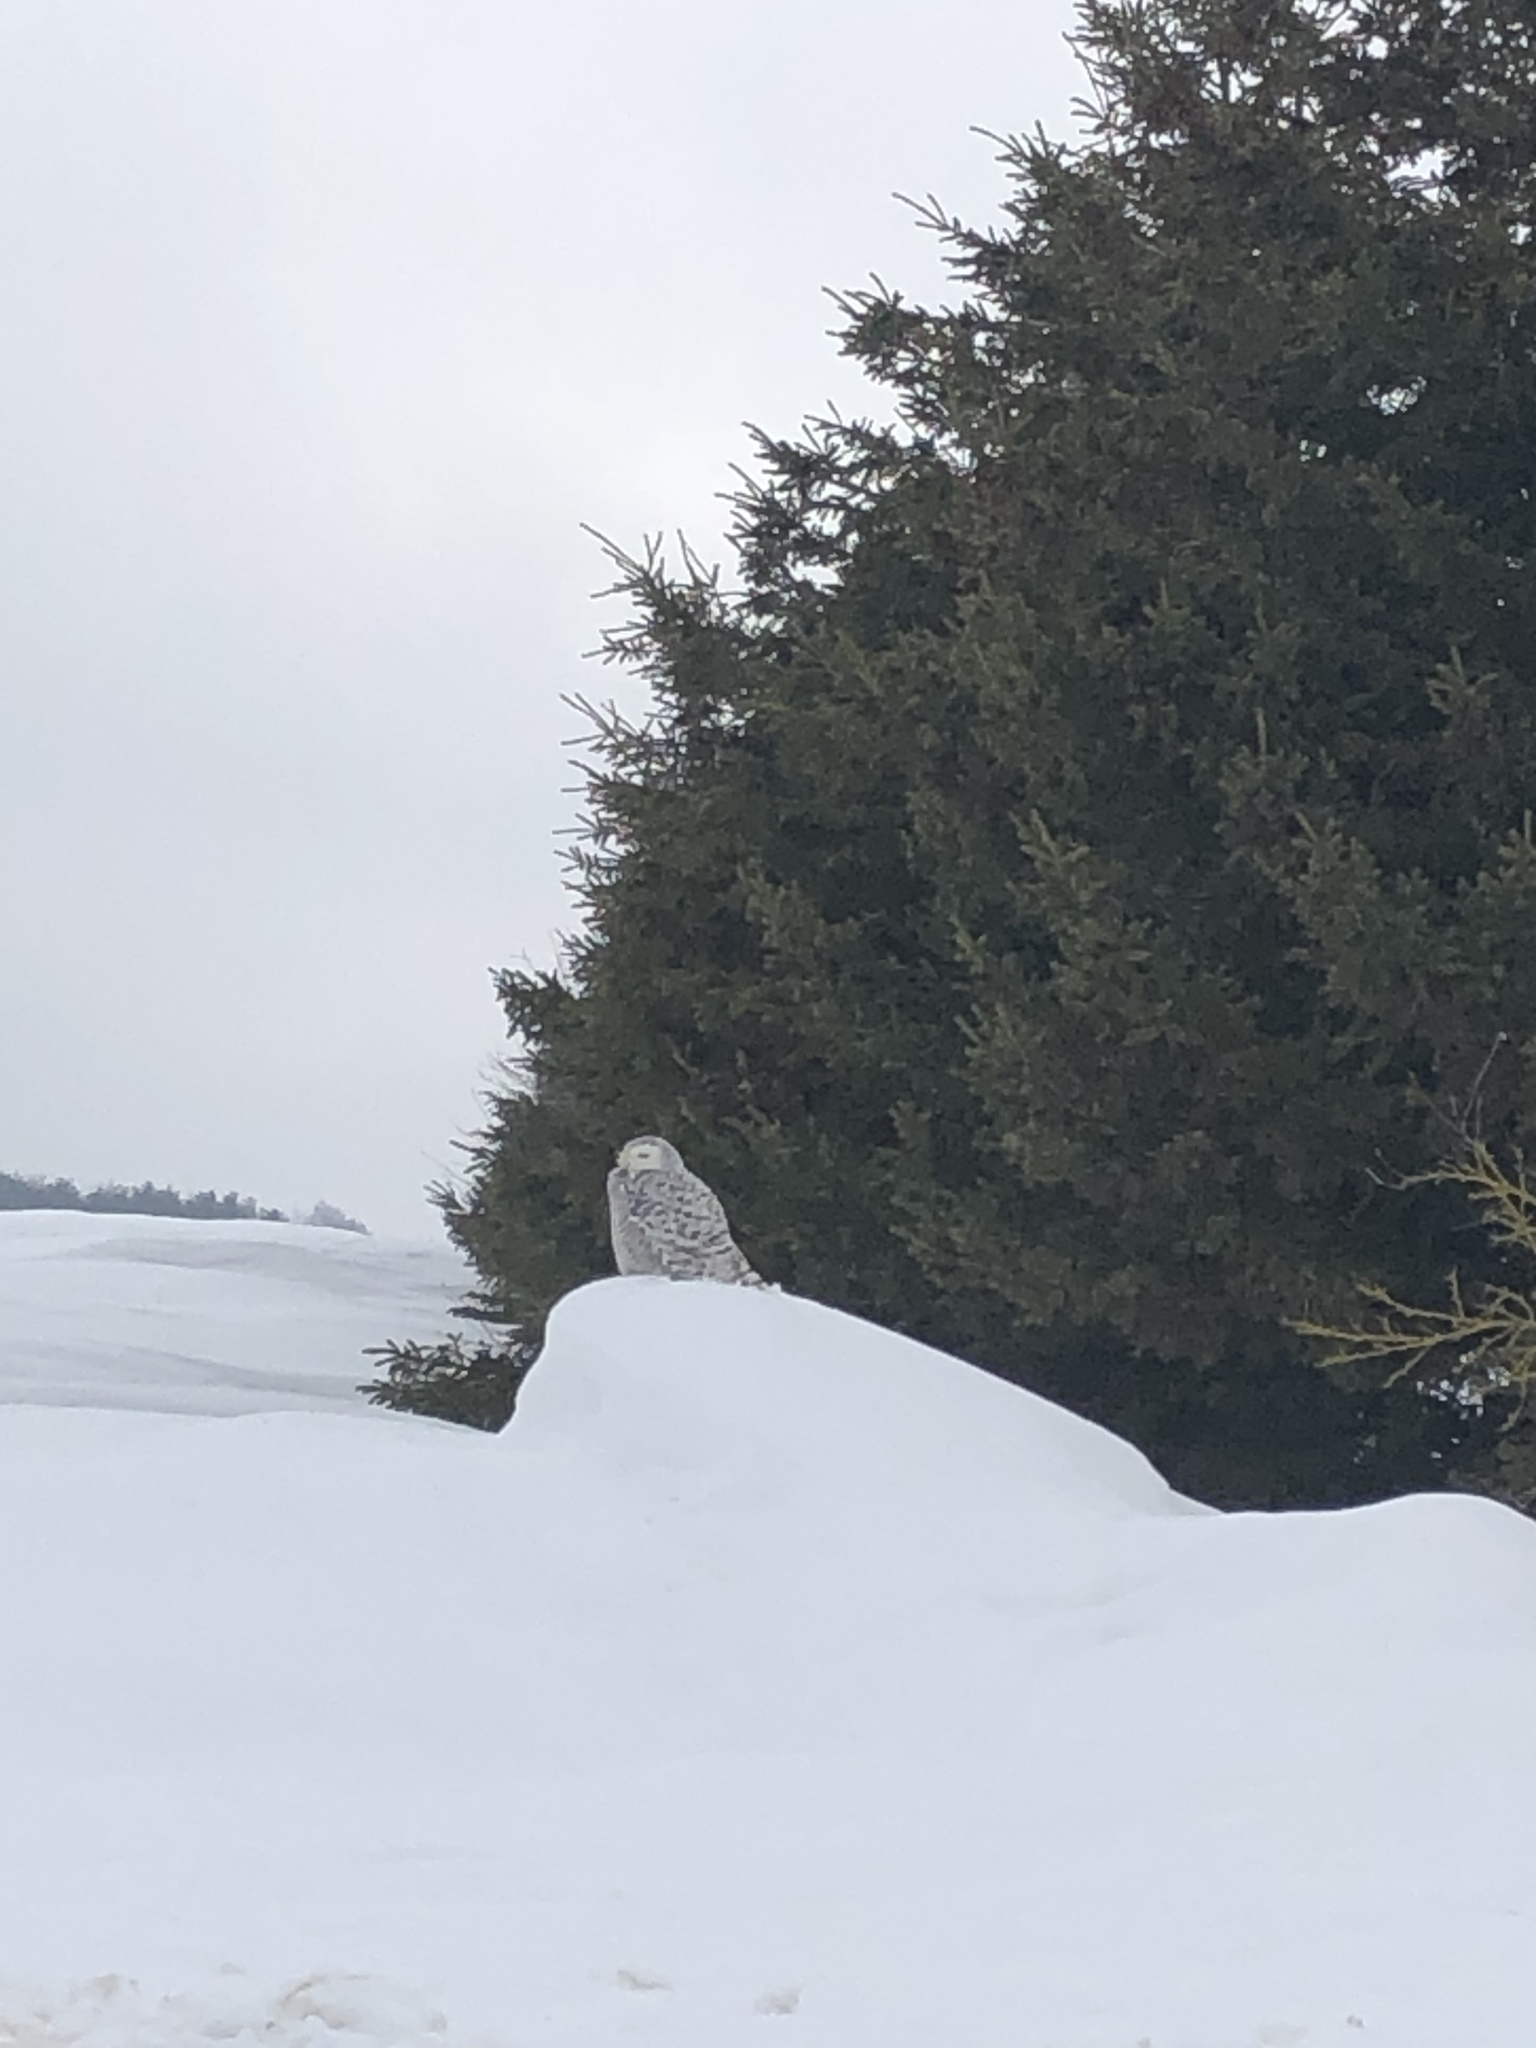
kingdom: Animalia
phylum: Chordata
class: Aves
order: Strigiformes
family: Strigidae
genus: Bubo
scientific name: Bubo scandiacus
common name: Snowy owl
